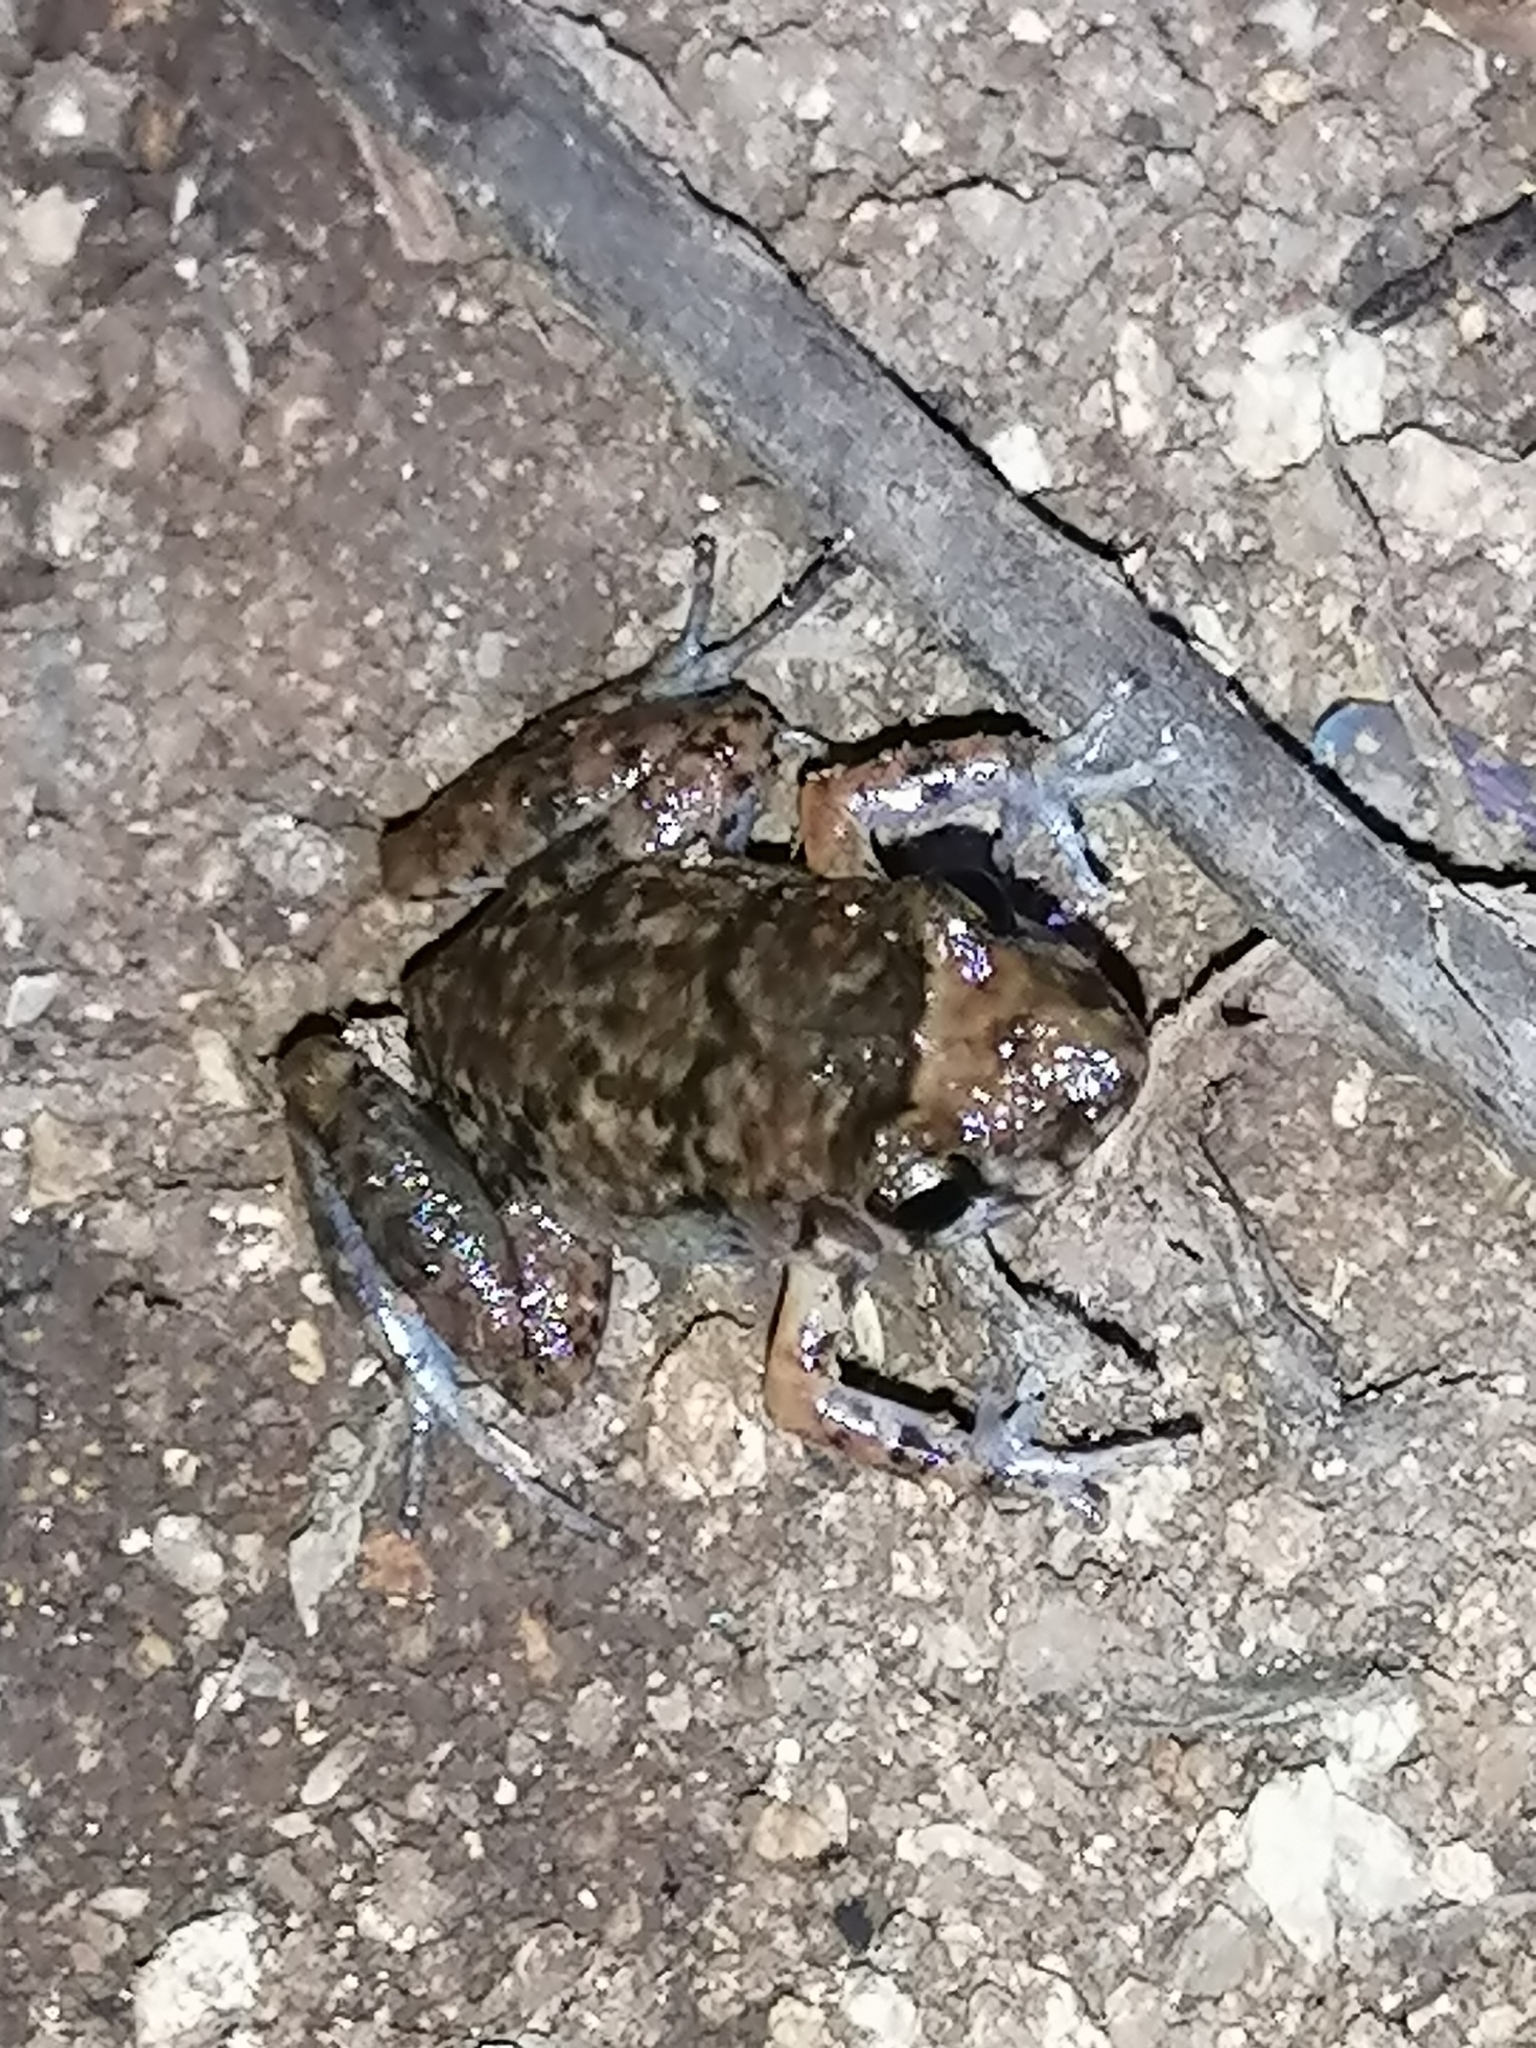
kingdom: Animalia
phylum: Chordata
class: Amphibia
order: Anura
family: Eleutherodactylidae
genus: Eleutherodactylus
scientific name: Eleutherodactylus planirostris
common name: Greenhouse frog
